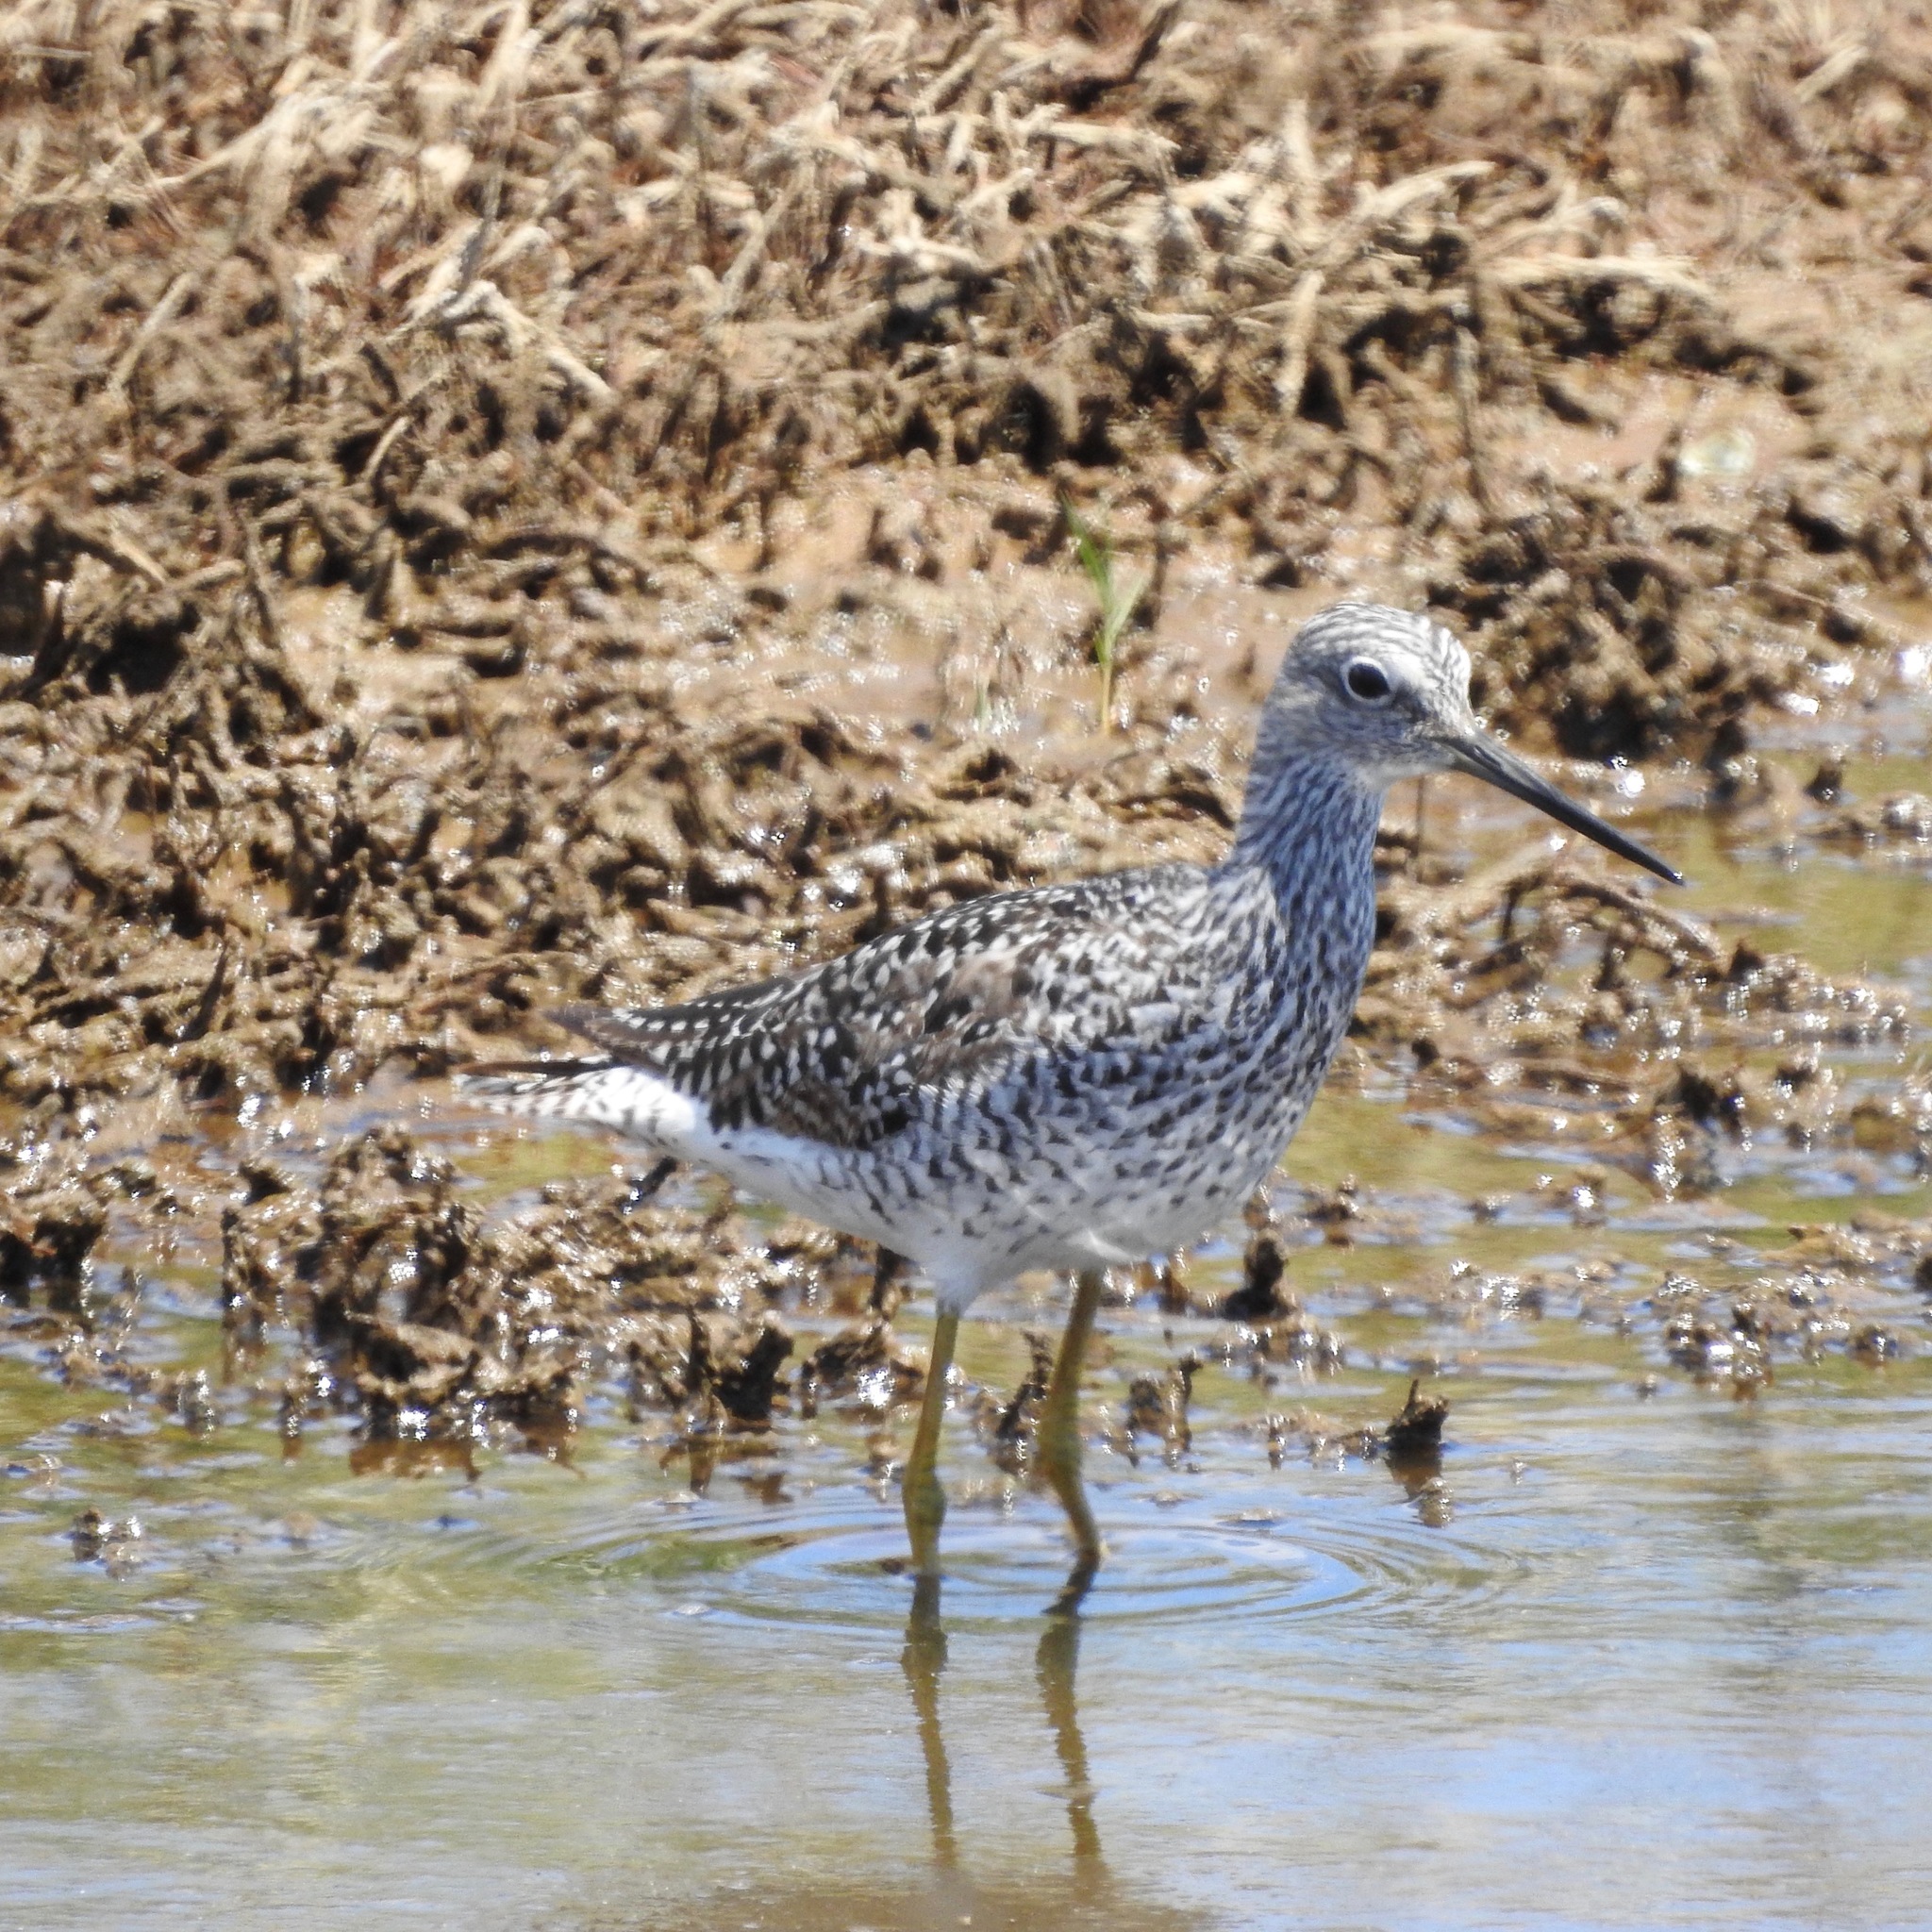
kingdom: Animalia
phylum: Chordata
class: Aves
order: Charadriiformes
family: Scolopacidae
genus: Tringa
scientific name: Tringa melanoleuca
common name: Greater yellowlegs
